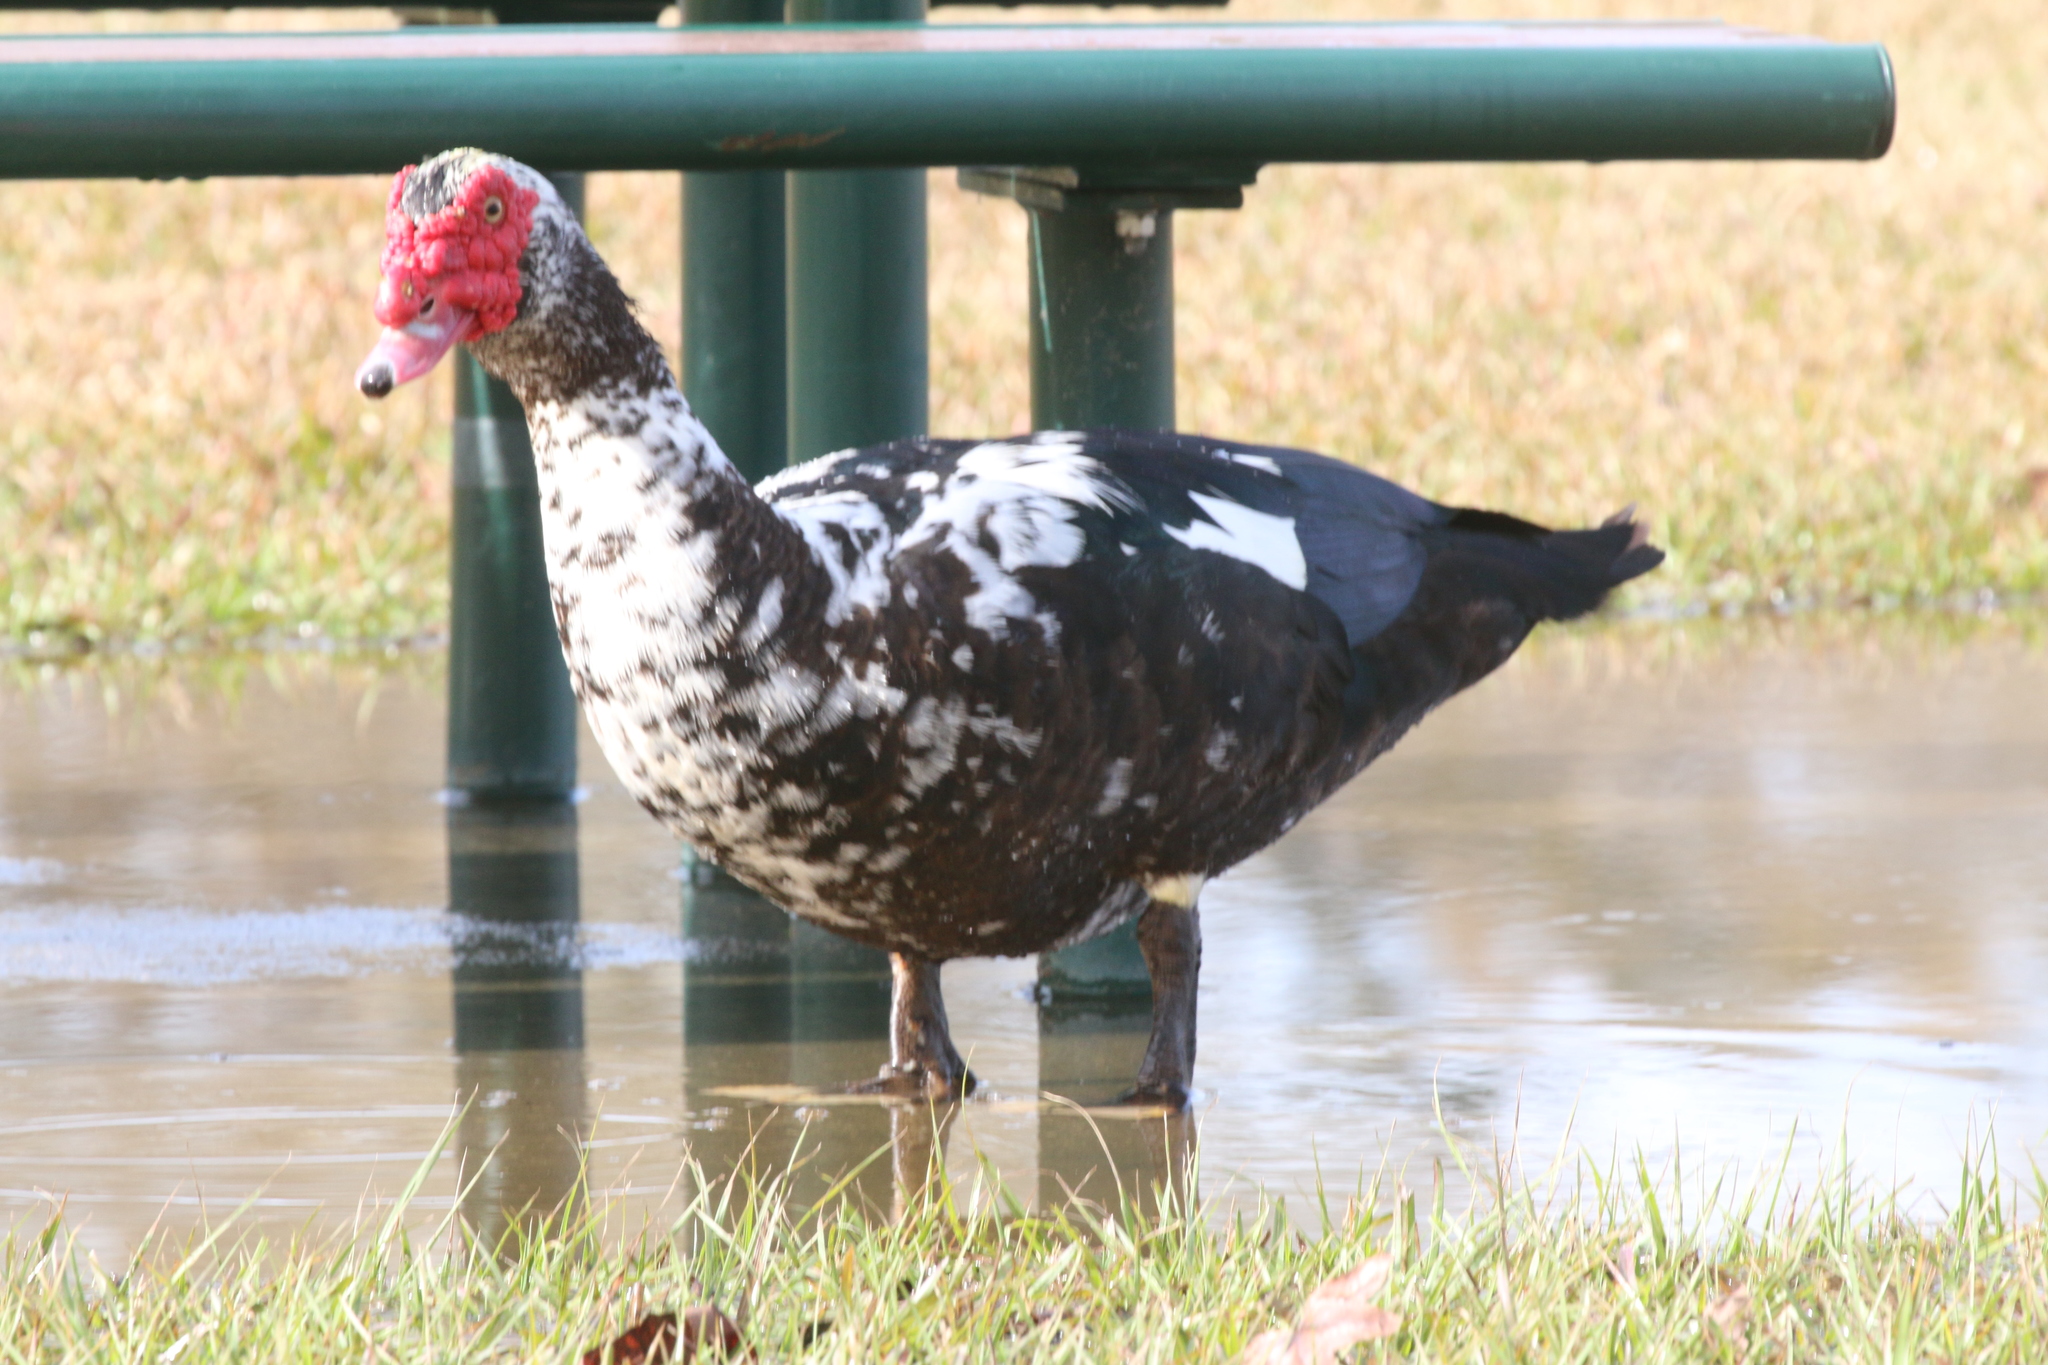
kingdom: Animalia
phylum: Chordata
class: Aves
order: Anseriformes
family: Anatidae
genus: Cairina
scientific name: Cairina moschata
